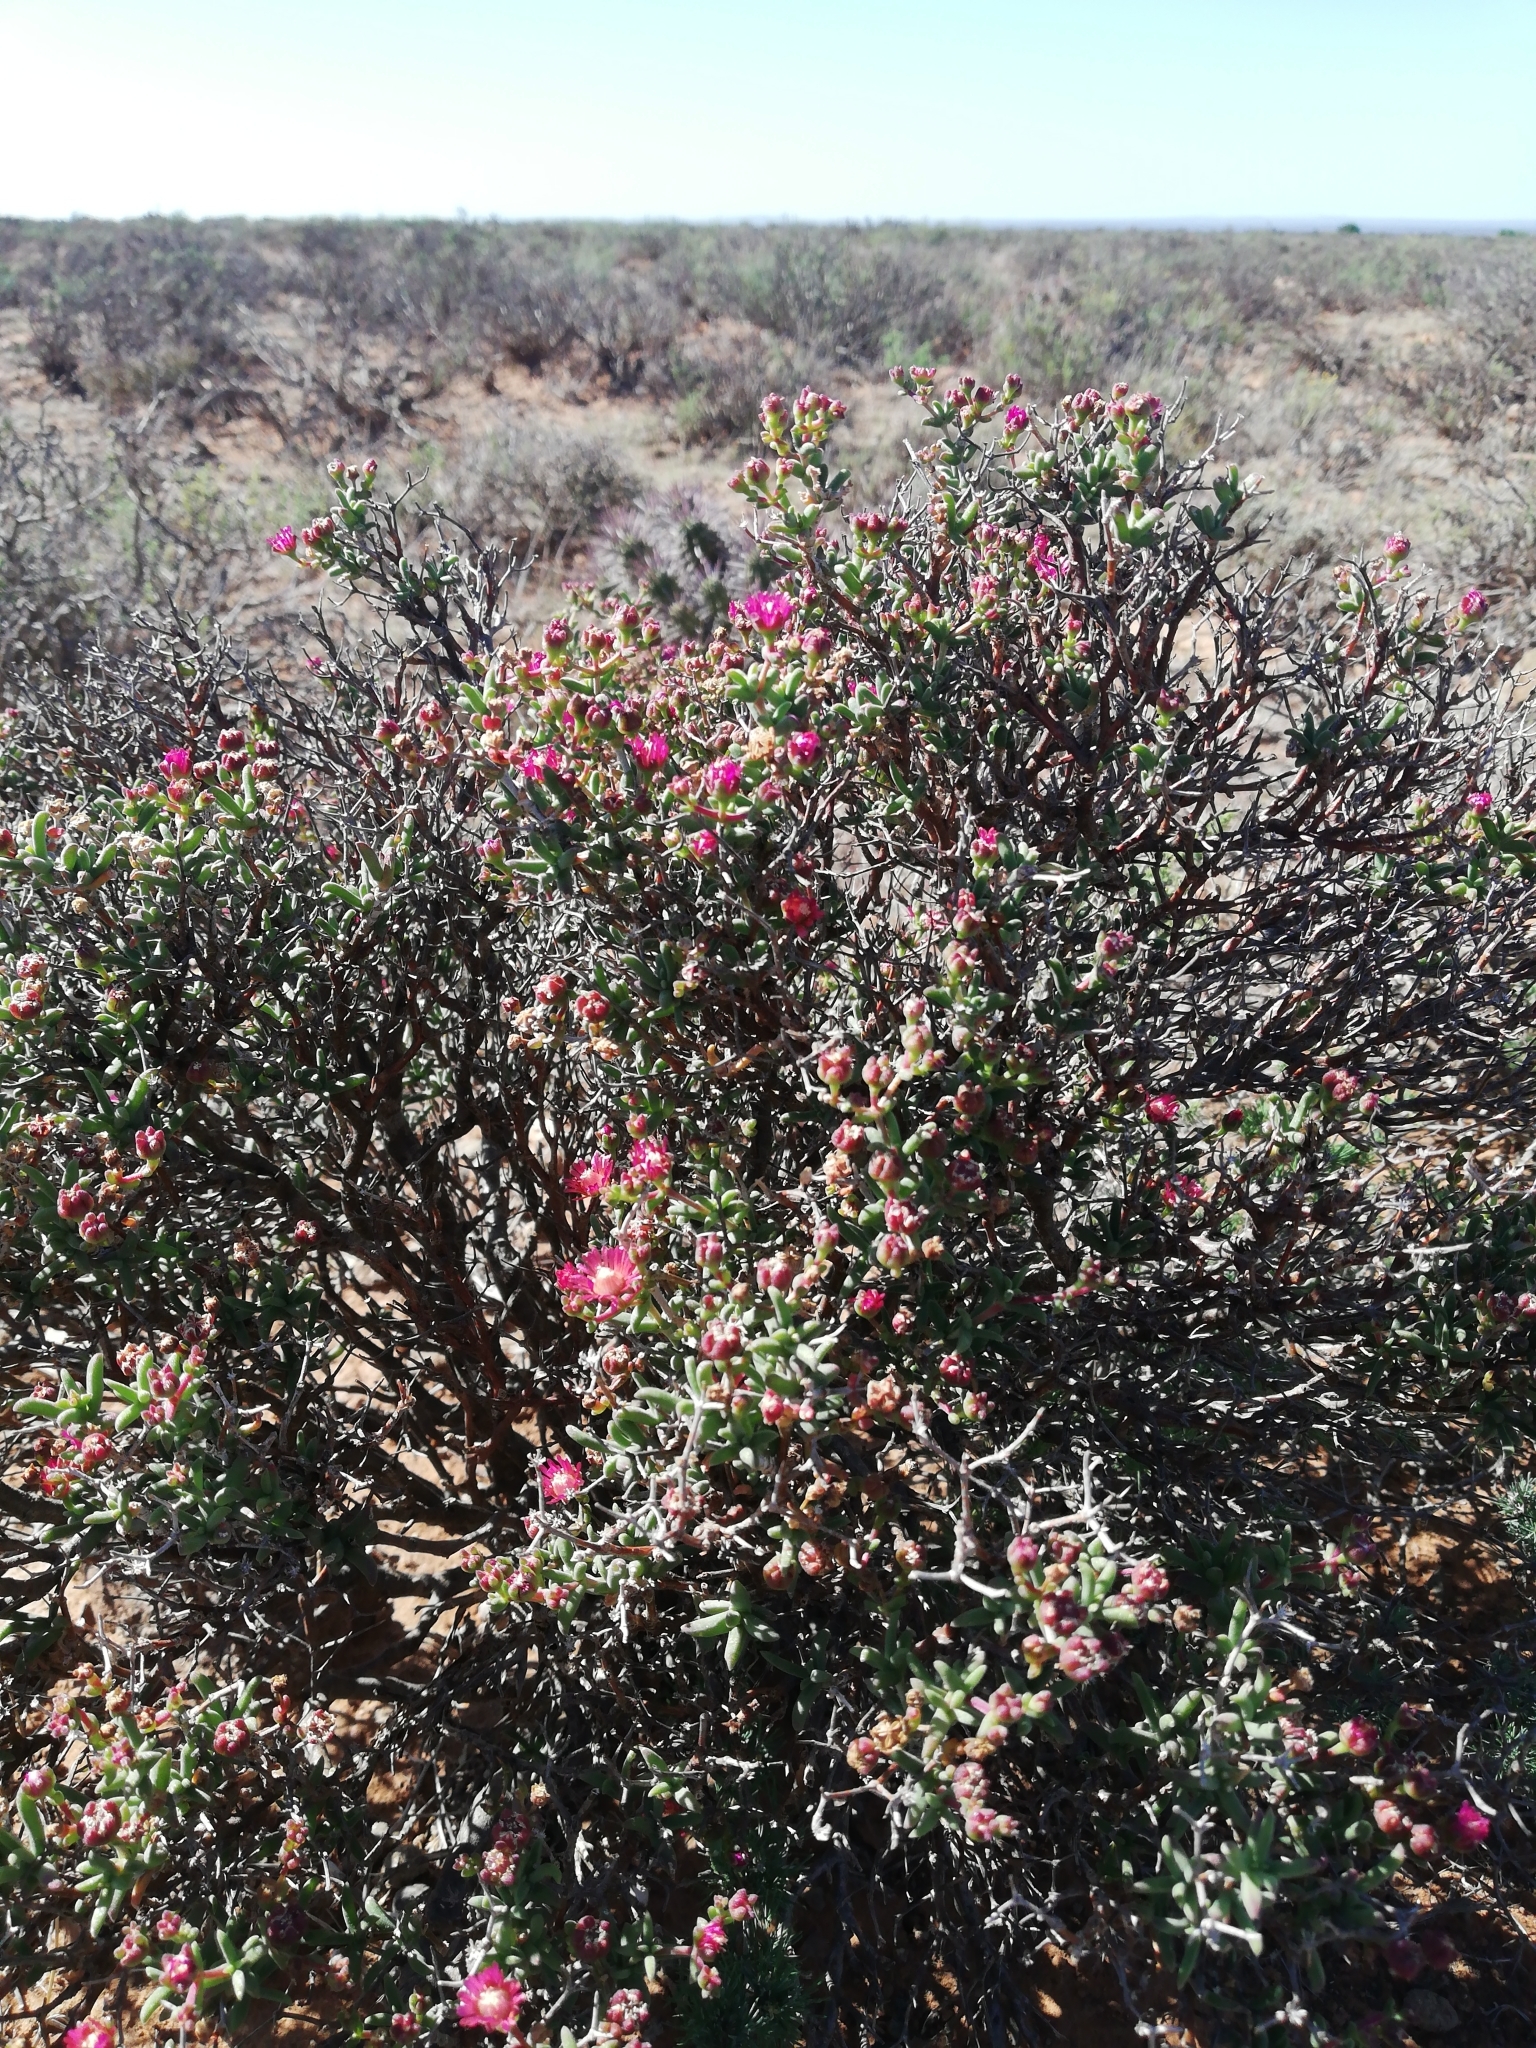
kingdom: Plantae
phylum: Tracheophyta
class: Magnoliopsida
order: Caryophyllales
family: Aizoaceae
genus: Mestoklema
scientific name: Mestoklema illepidum
